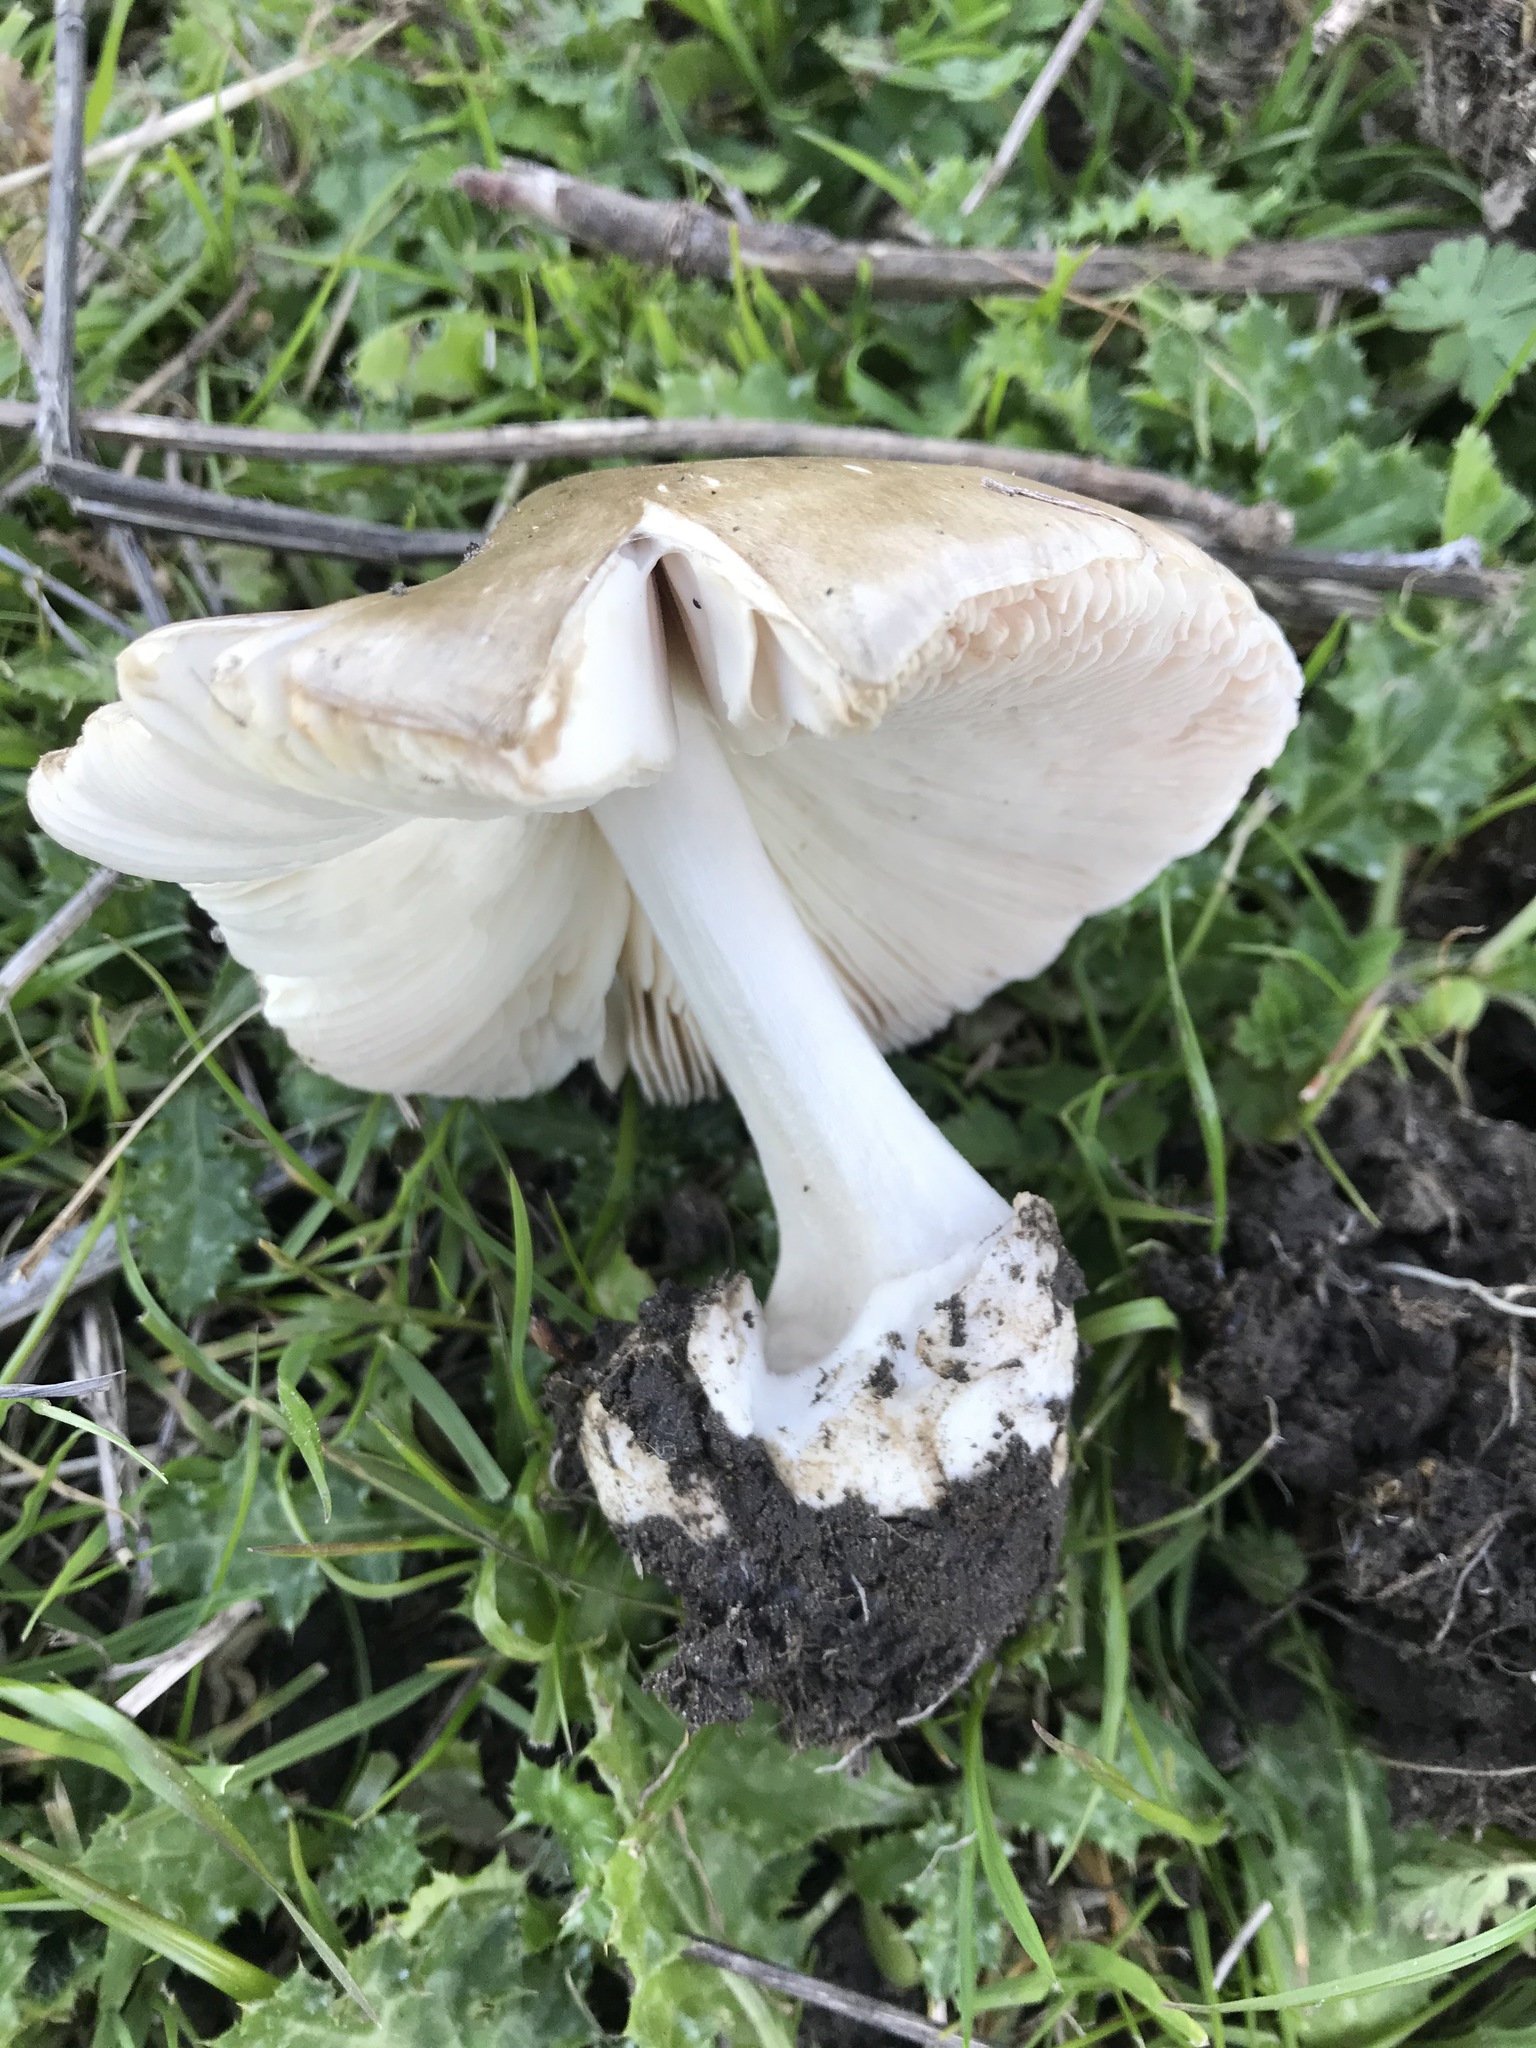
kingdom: Fungi
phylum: Basidiomycota
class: Agaricomycetes
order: Agaricales
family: Pluteaceae
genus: Volvopluteus
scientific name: Volvopluteus gloiocephalus
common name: Stubble rosegill
